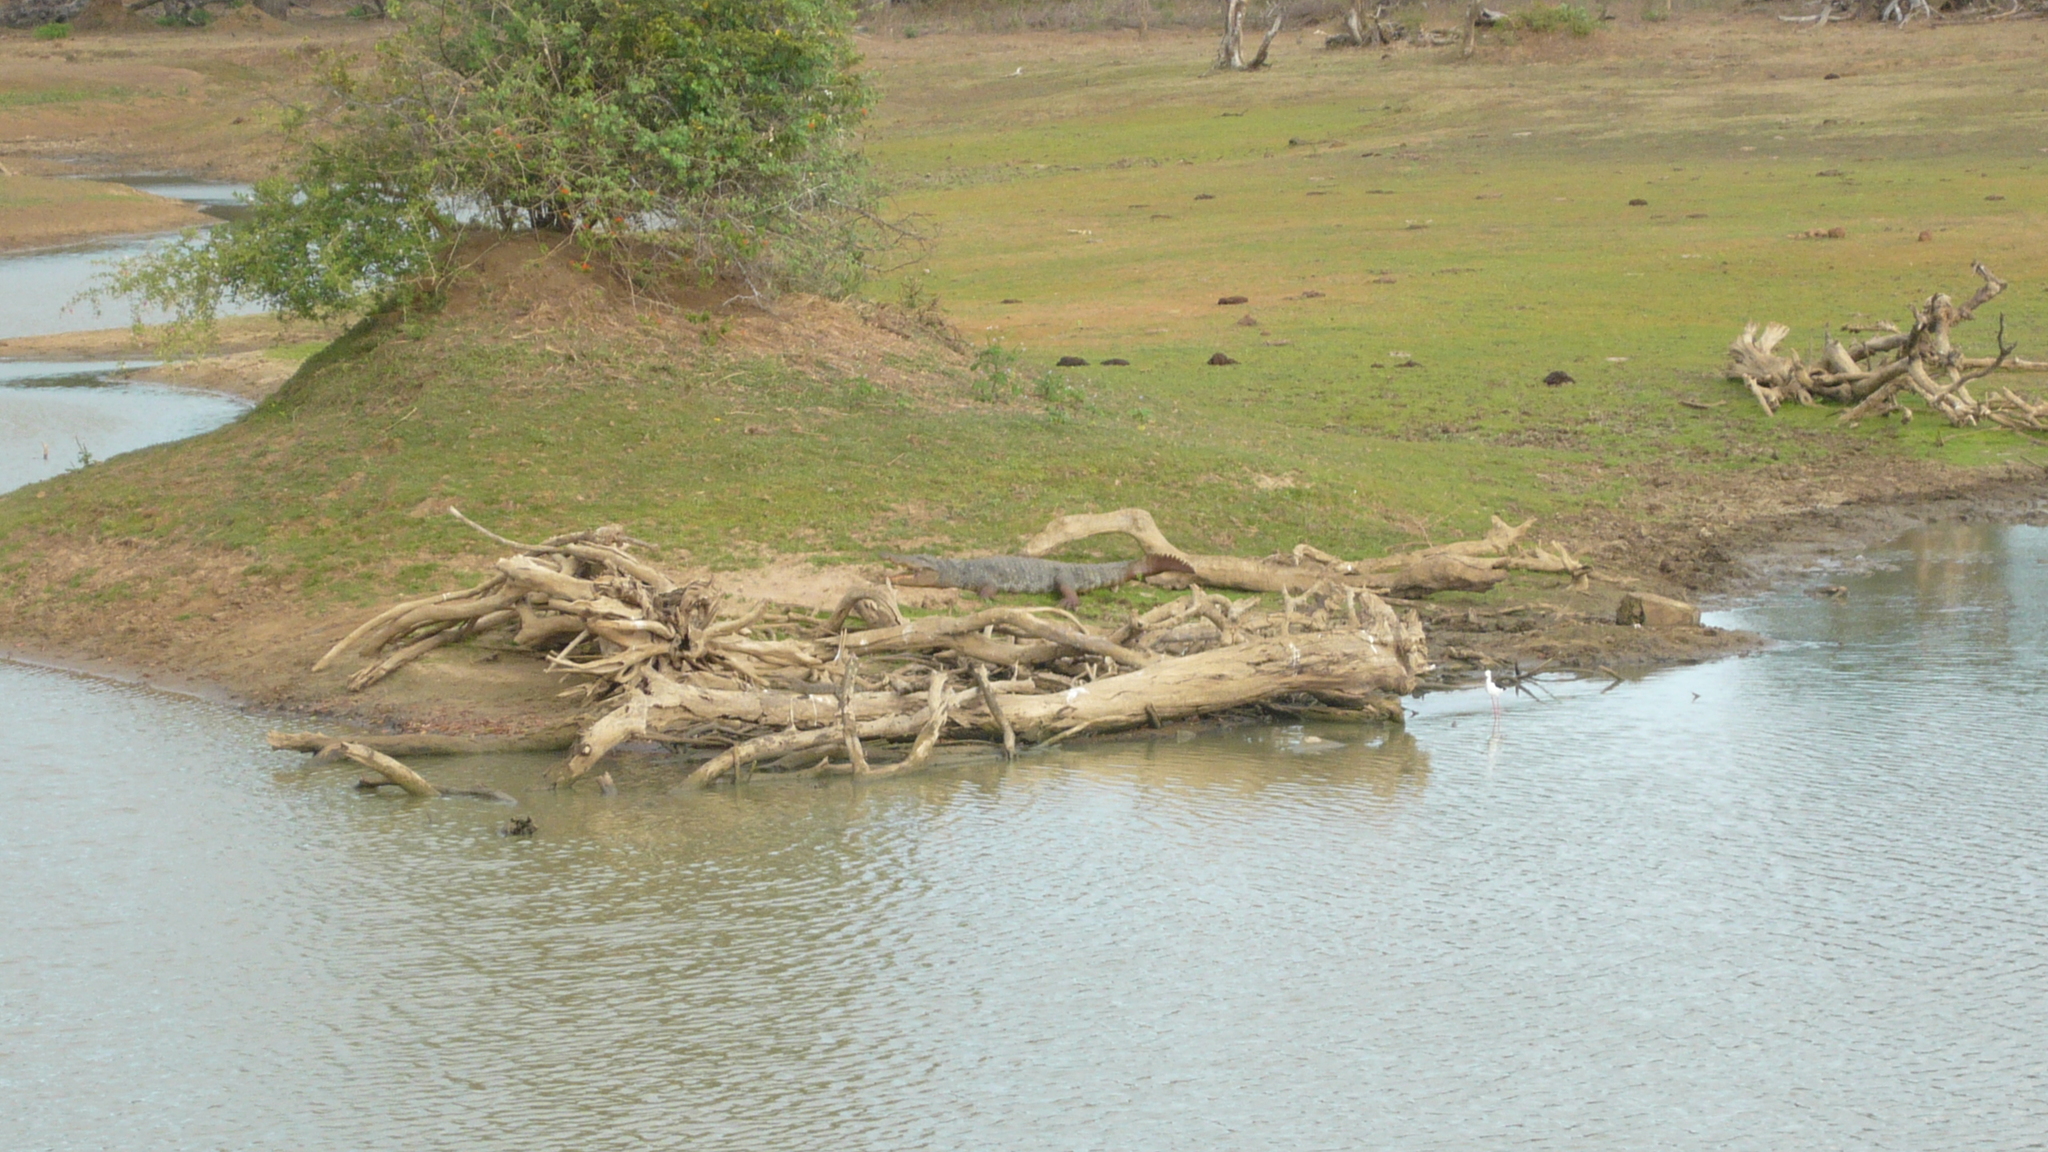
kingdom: Animalia
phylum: Chordata
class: Crocodylia
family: Crocodylidae
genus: Crocodylus
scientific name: Crocodylus palustris
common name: Mugger crocodile
